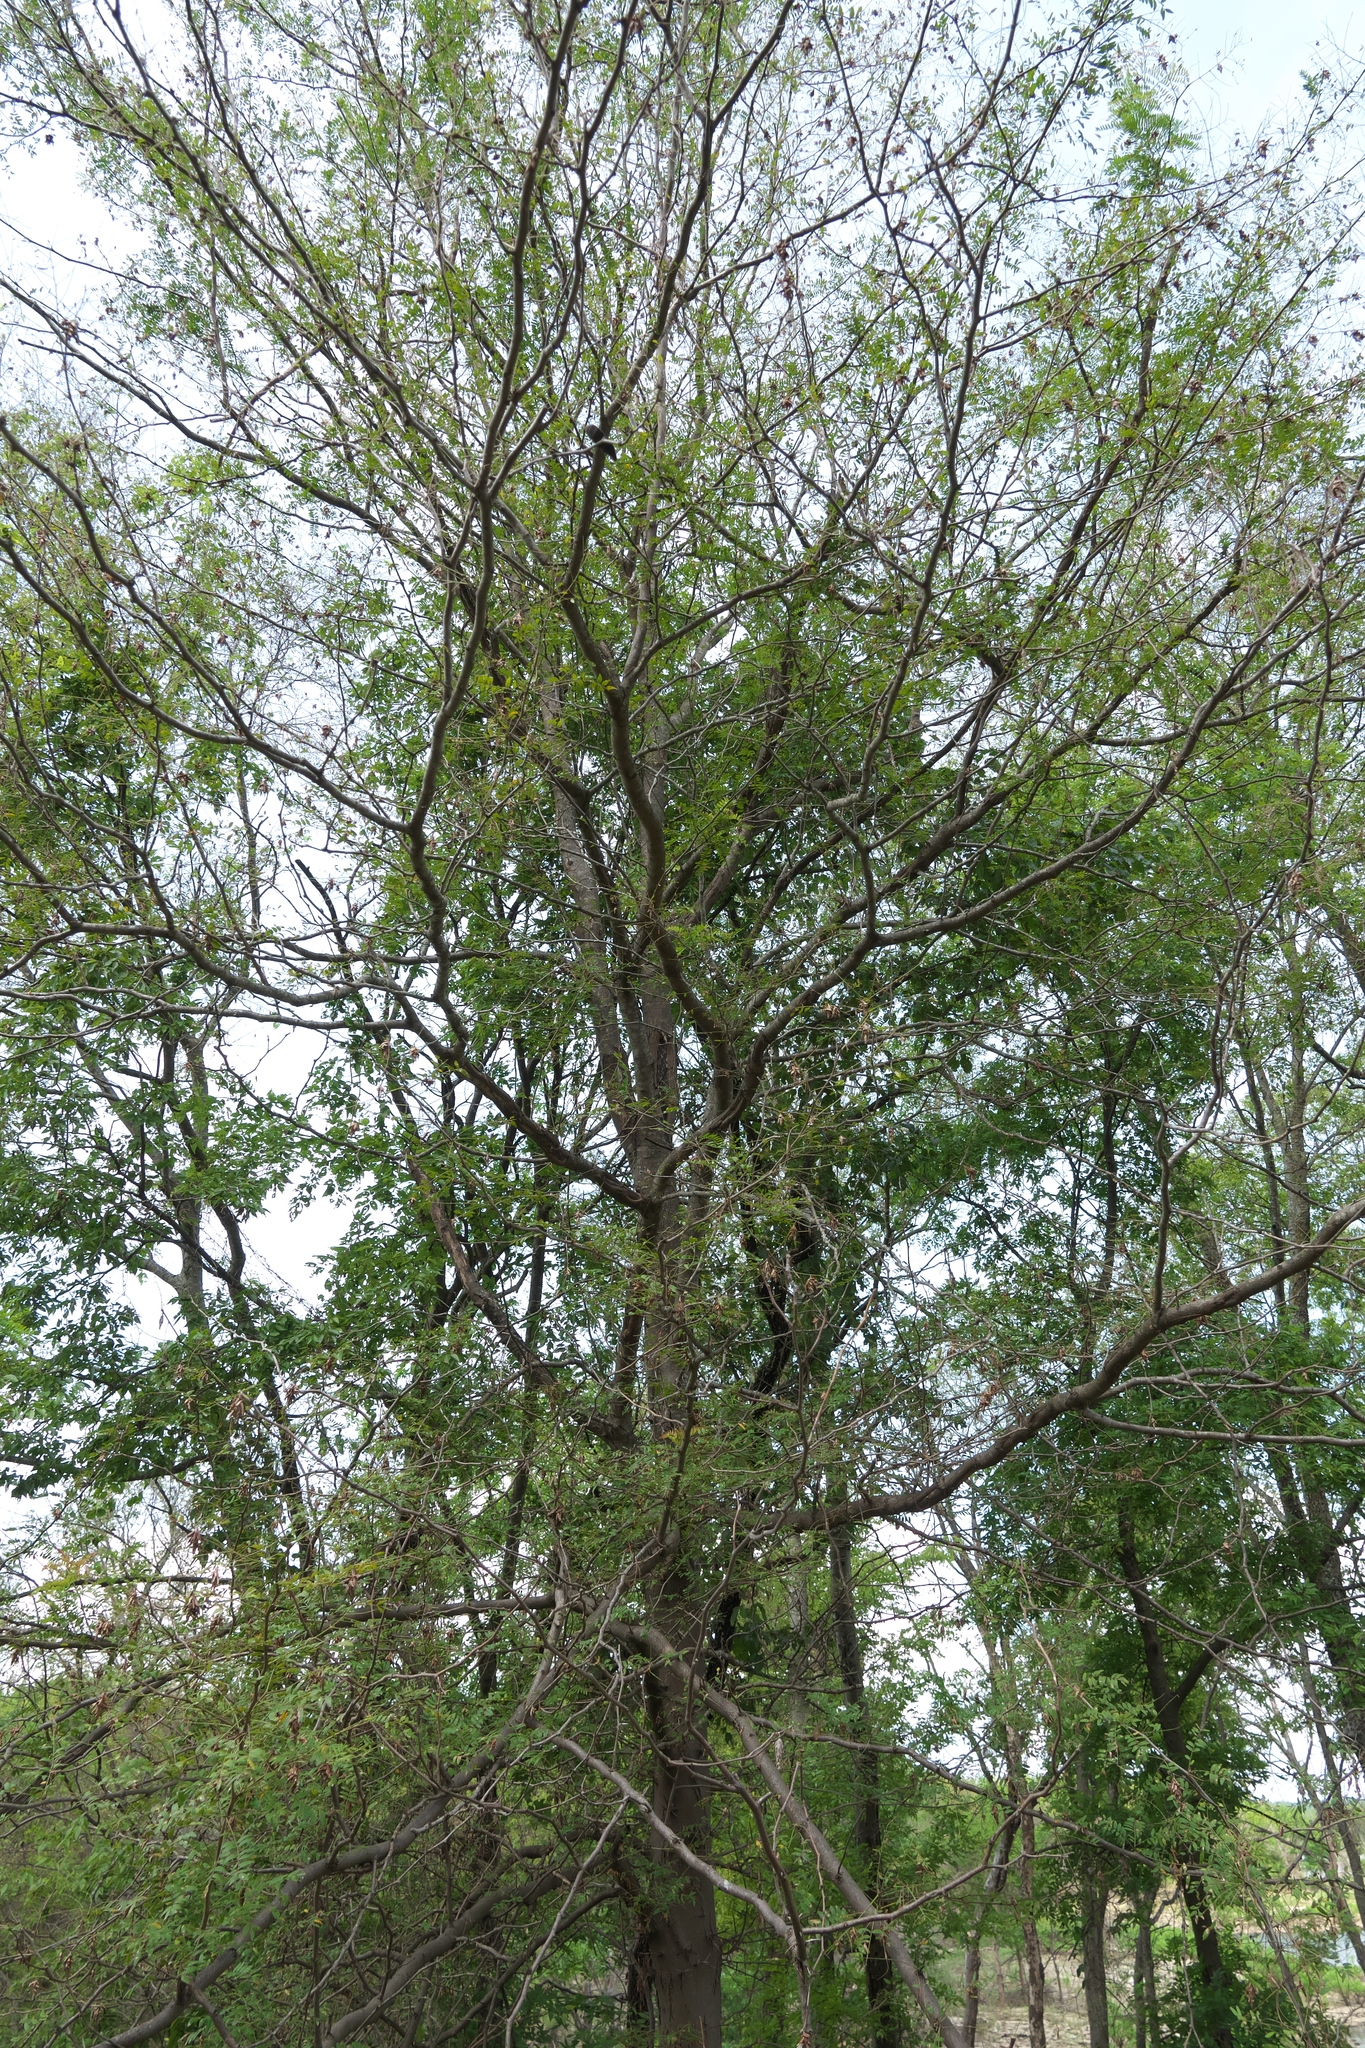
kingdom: Plantae
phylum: Tracheophyta
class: Magnoliopsida
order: Fabales
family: Fabaceae
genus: Gleditsia
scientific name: Gleditsia triacanthos
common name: Common honeylocust
